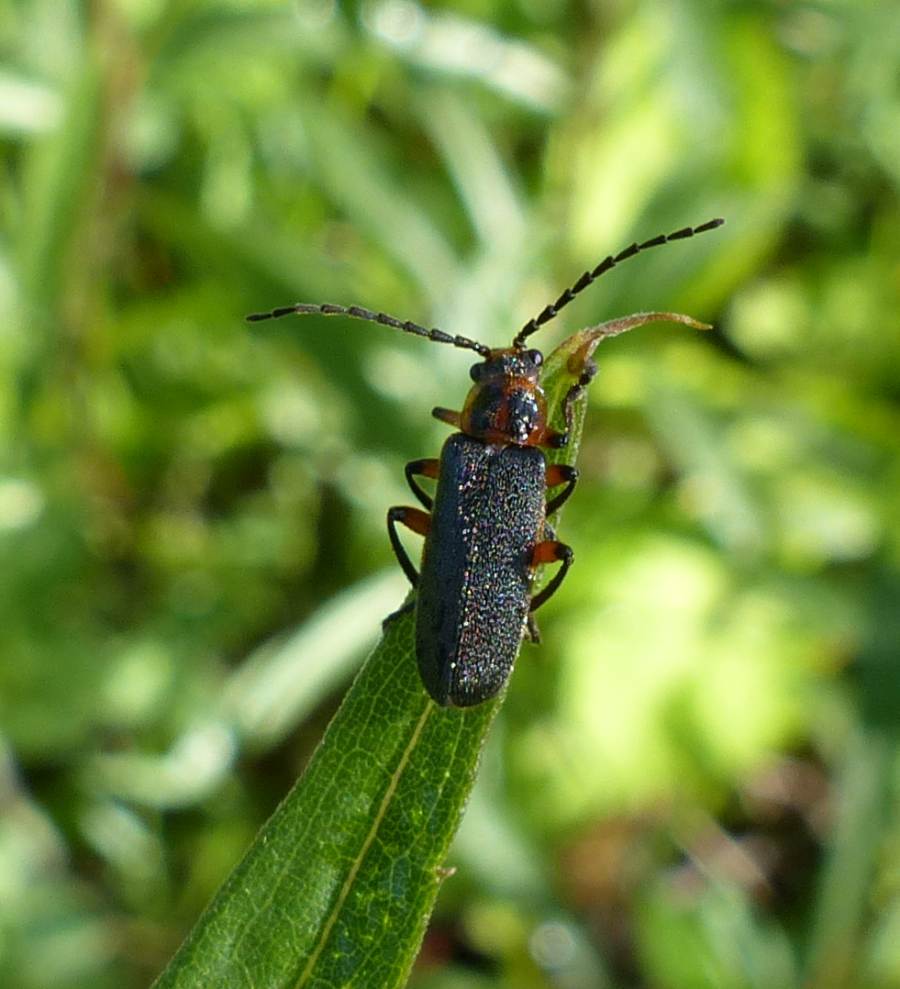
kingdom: Animalia
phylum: Arthropoda
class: Insecta
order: Coleoptera
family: Cantharidae
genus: Atalantycha
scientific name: Atalantycha bilineata
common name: Two-lined leatherwing
